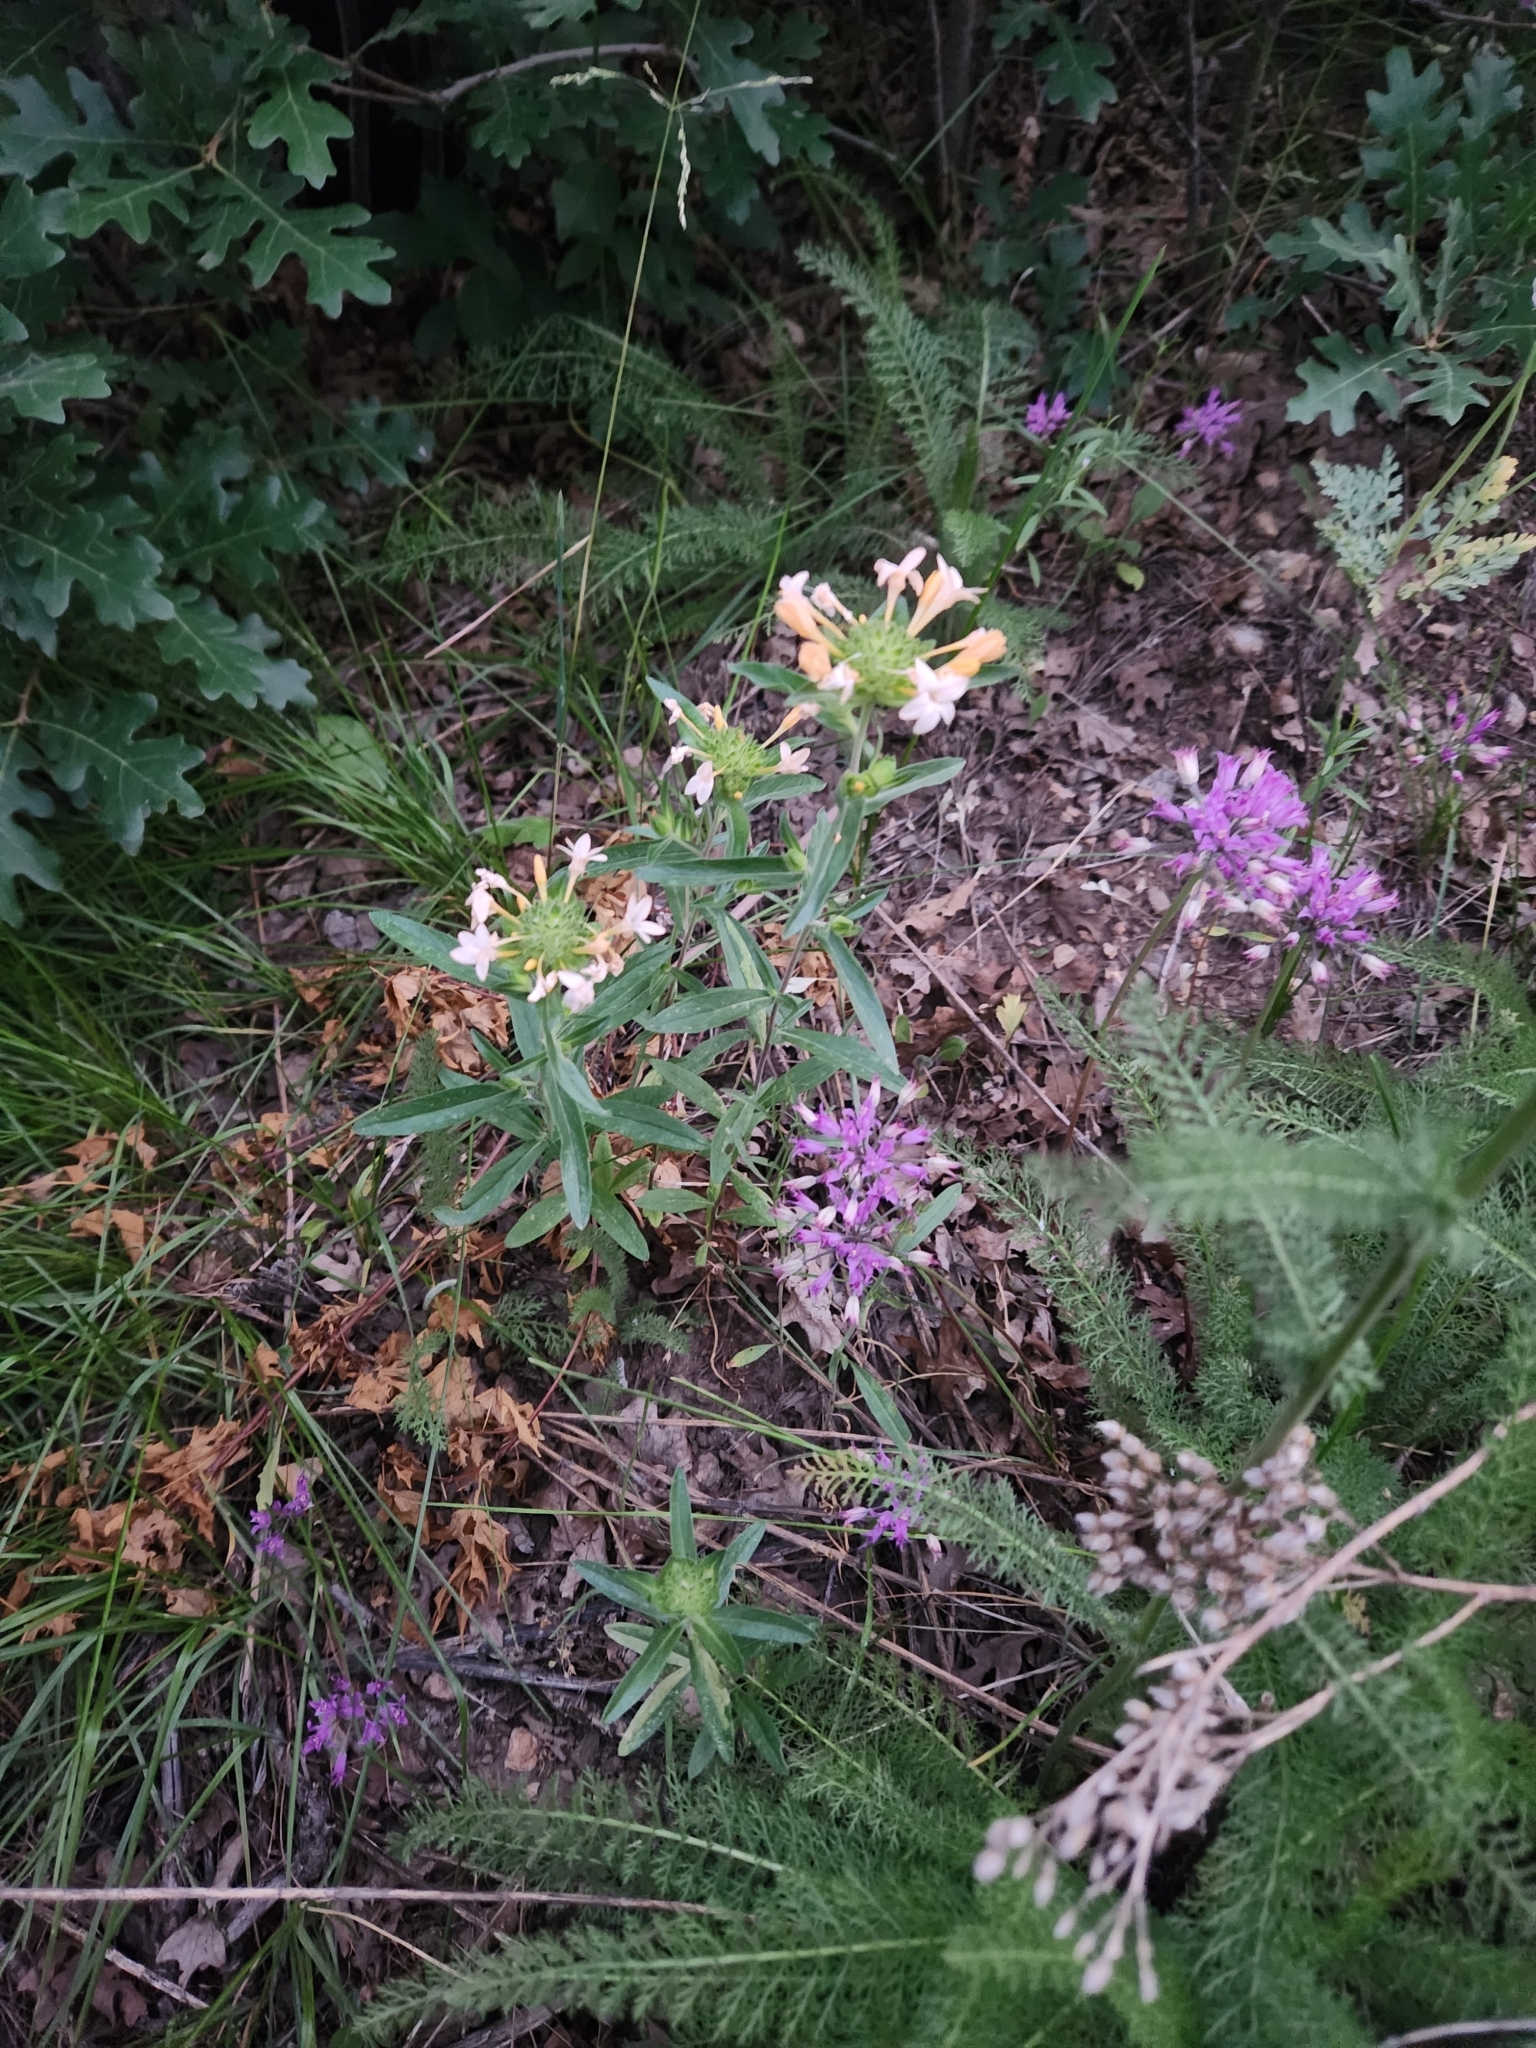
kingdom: Plantae
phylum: Tracheophyta
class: Magnoliopsida
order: Ericales
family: Polemoniaceae
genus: Collomia
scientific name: Collomia grandiflora
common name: California strawflower
